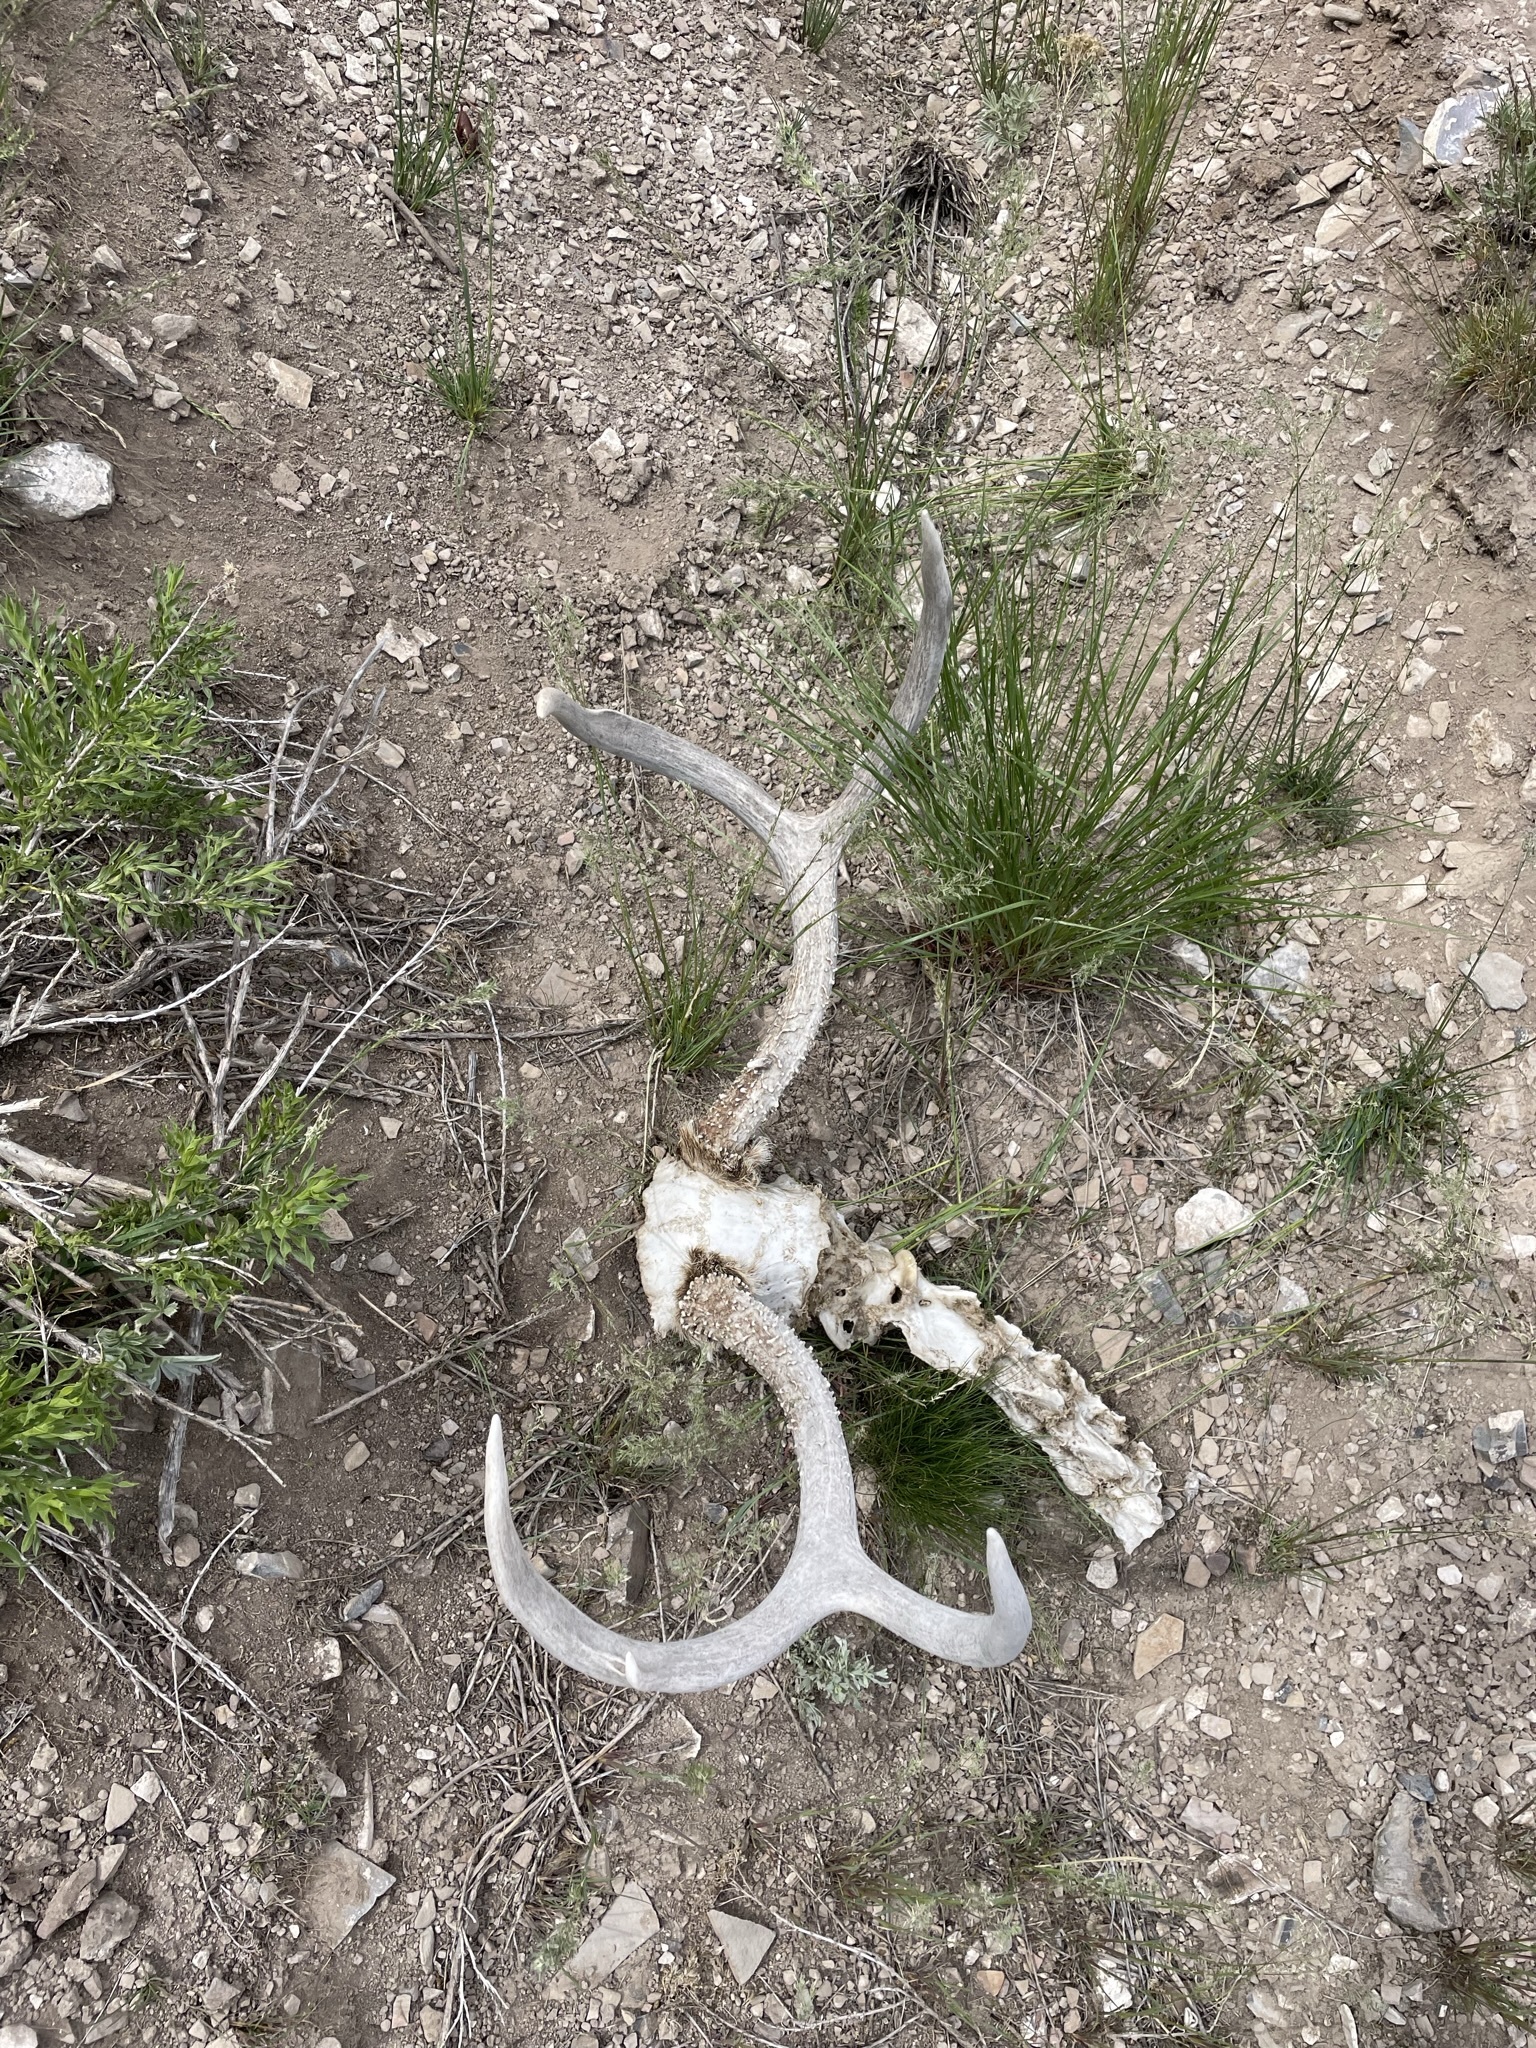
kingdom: Animalia
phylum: Chordata
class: Mammalia
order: Artiodactyla
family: Cervidae
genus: Odocoileus
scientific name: Odocoileus hemionus
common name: Mule deer
